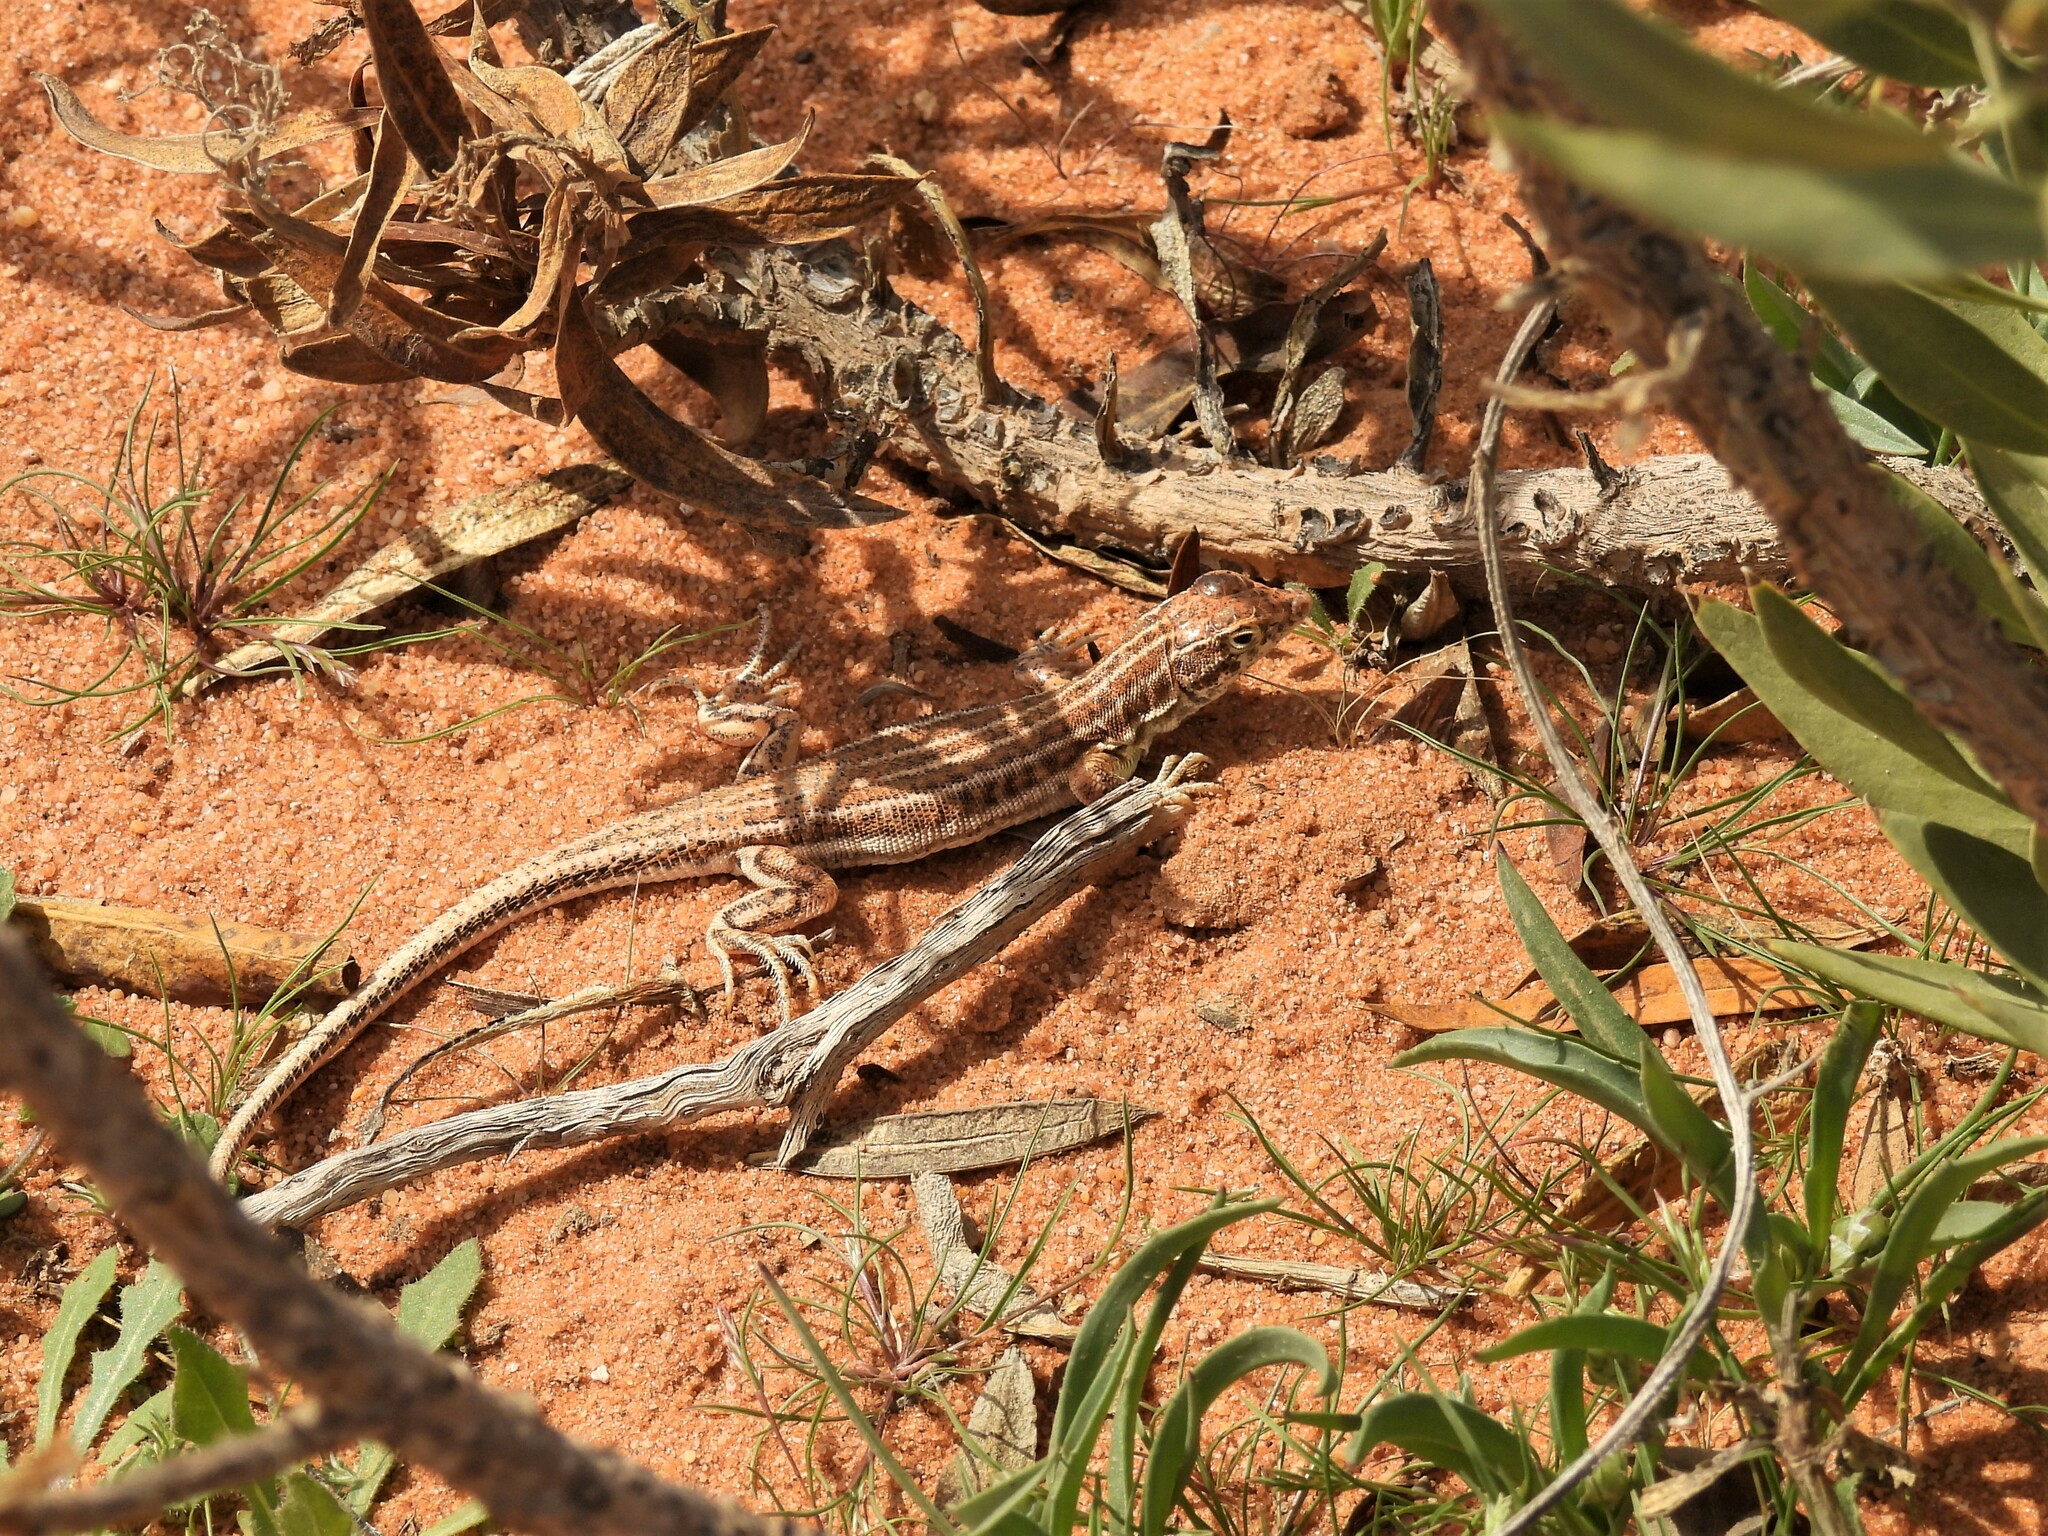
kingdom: Animalia
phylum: Chordata
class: Squamata
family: Lacertidae
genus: Acanthodactylus
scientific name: Acanthodactylus opheodurus
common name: Arnold's fringe-fingered lizard
